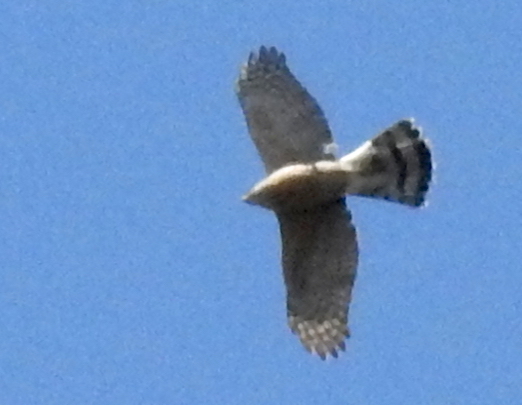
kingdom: Animalia
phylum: Chordata
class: Aves
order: Accipitriformes
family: Accipitridae
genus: Accipiter
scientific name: Accipiter cooperii
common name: Cooper's hawk
